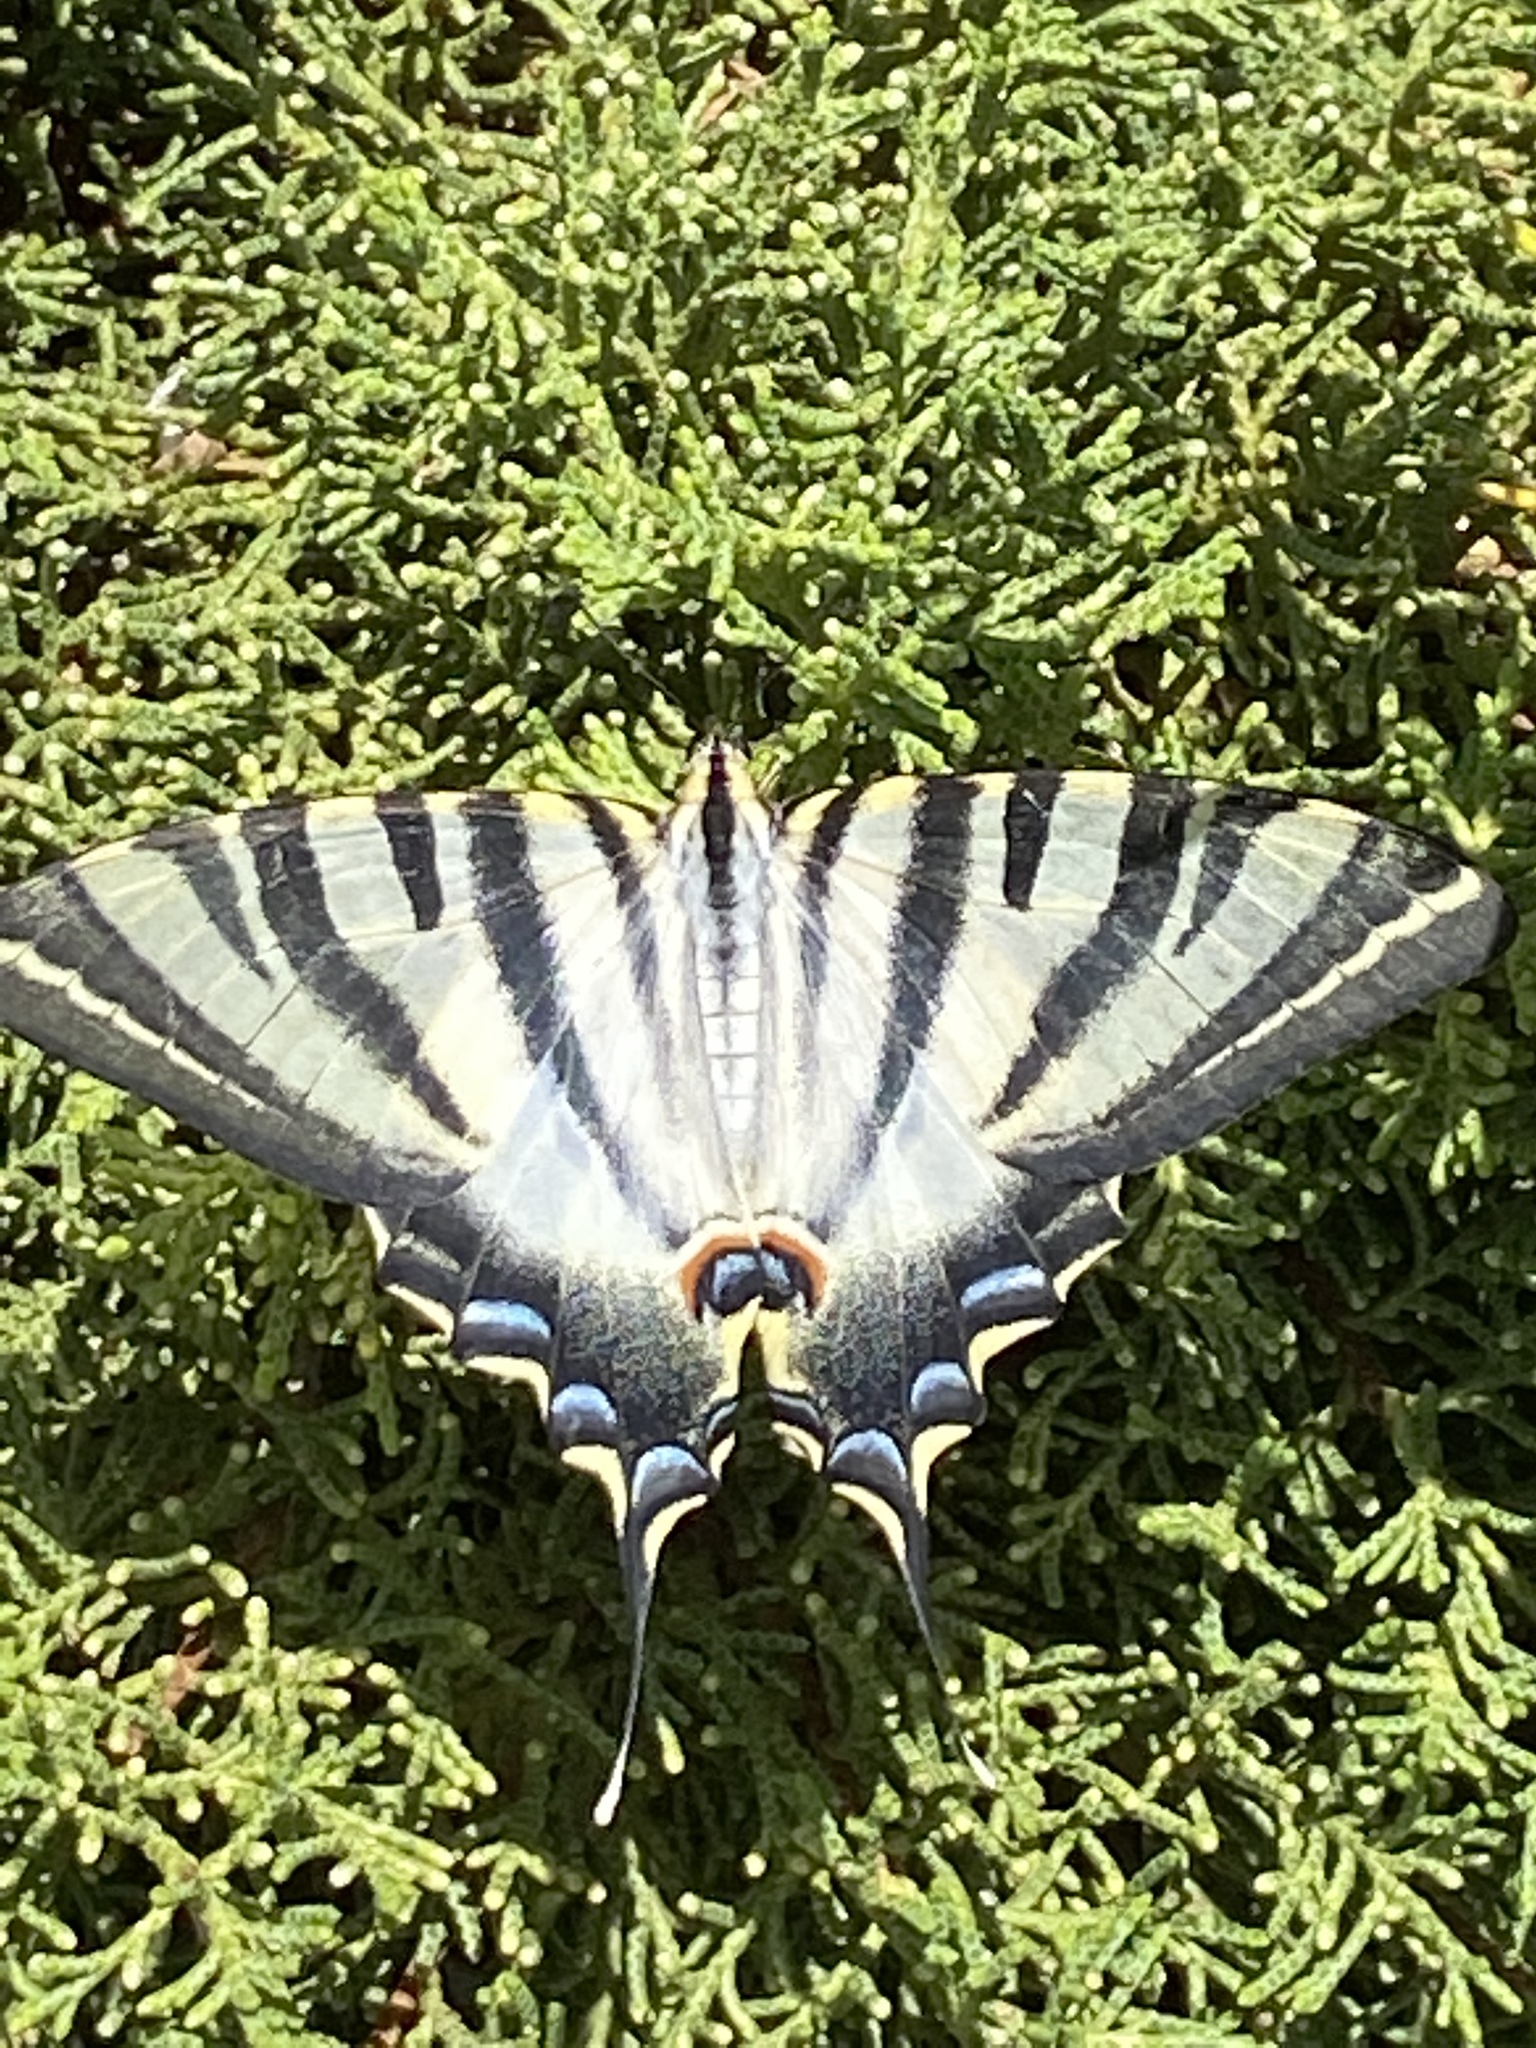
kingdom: Animalia
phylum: Arthropoda
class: Insecta
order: Lepidoptera
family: Papilionidae
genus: Iphiclides
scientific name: Iphiclides feisthamelii
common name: Iberian scarce swallowtail
